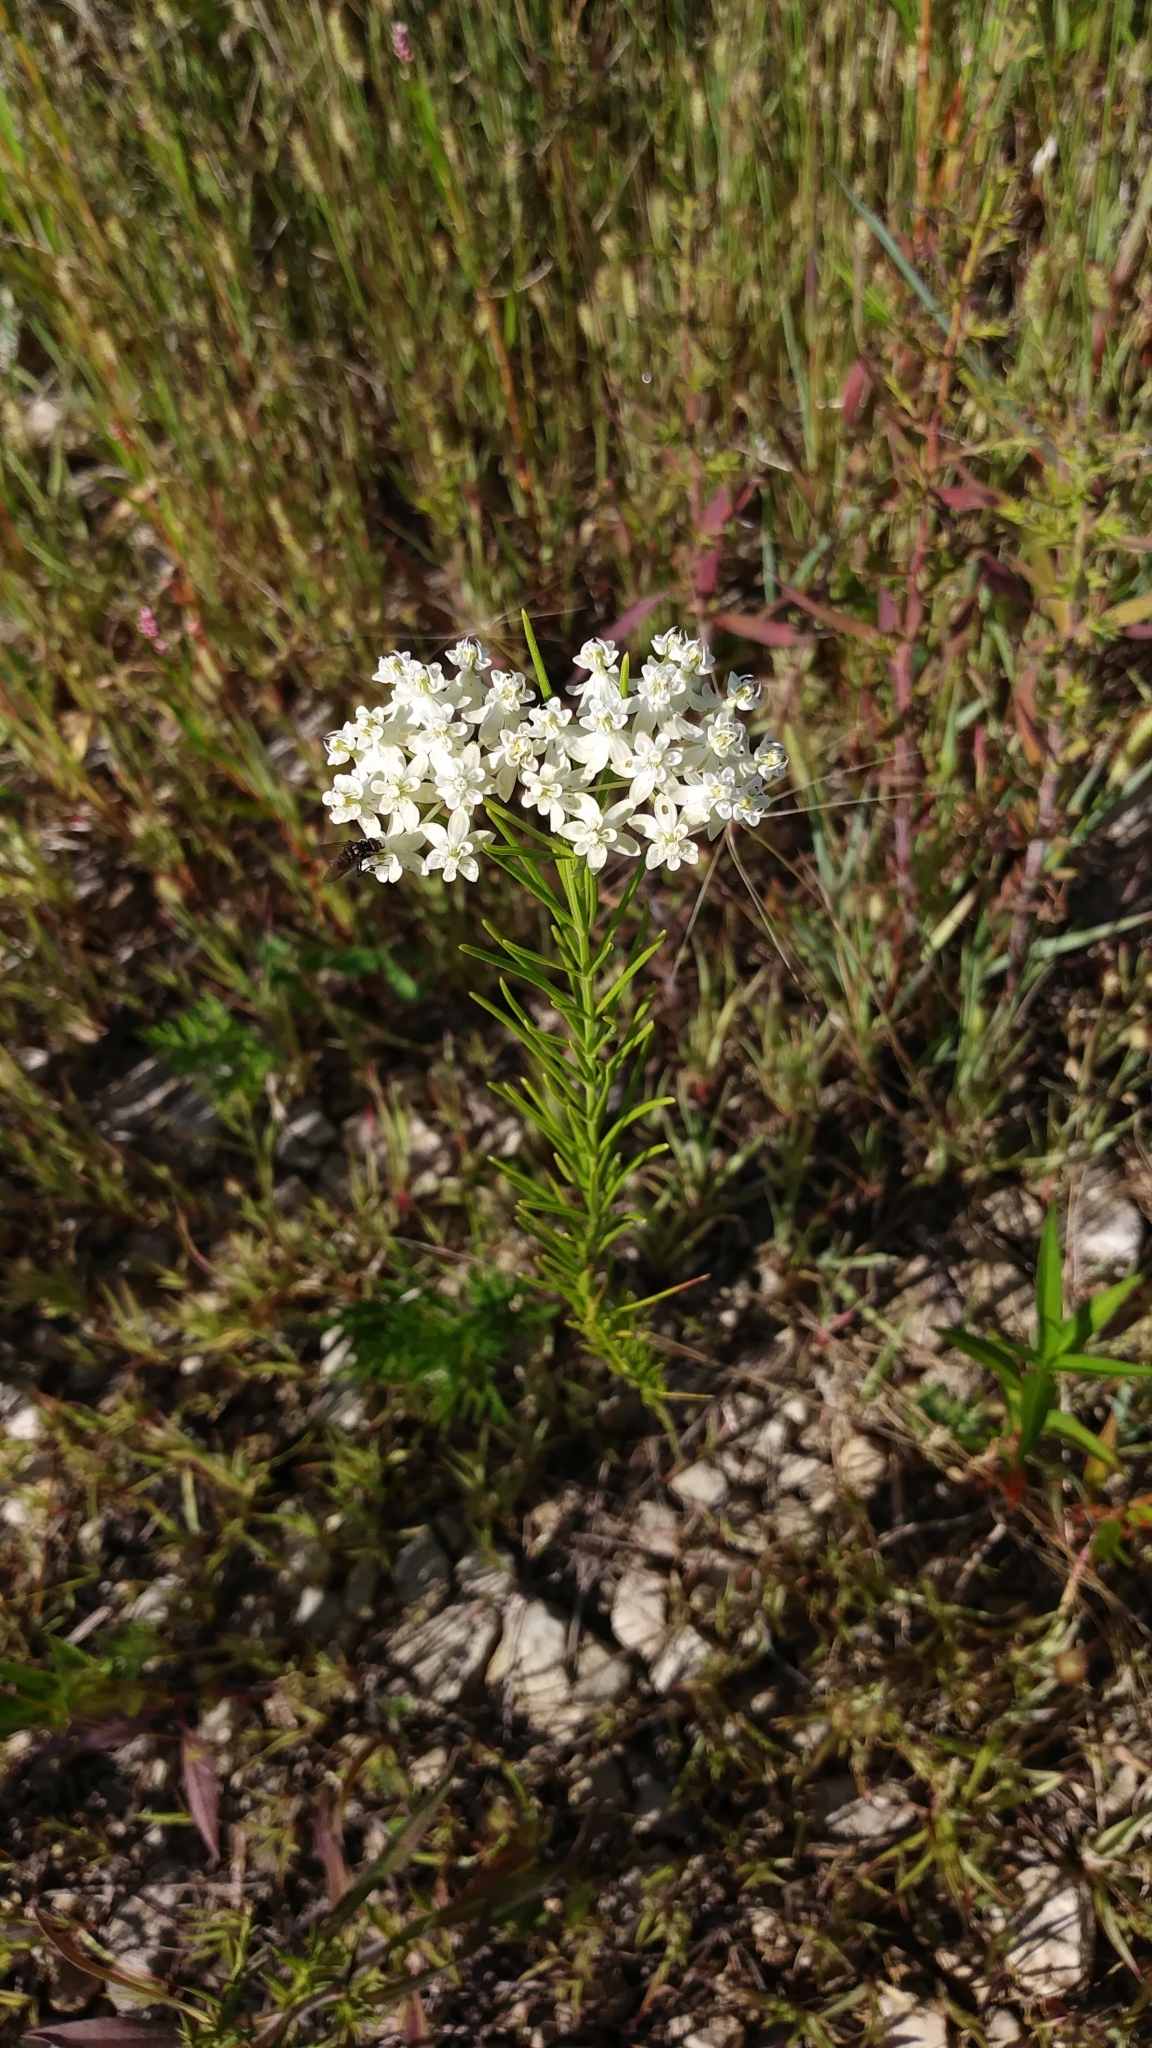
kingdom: Plantae
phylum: Tracheophyta
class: Magnoliopsida
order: Gentianales
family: Apocynaceae
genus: Asclepias
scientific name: Asclepias verticillata
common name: Eastern whorled milkweed
